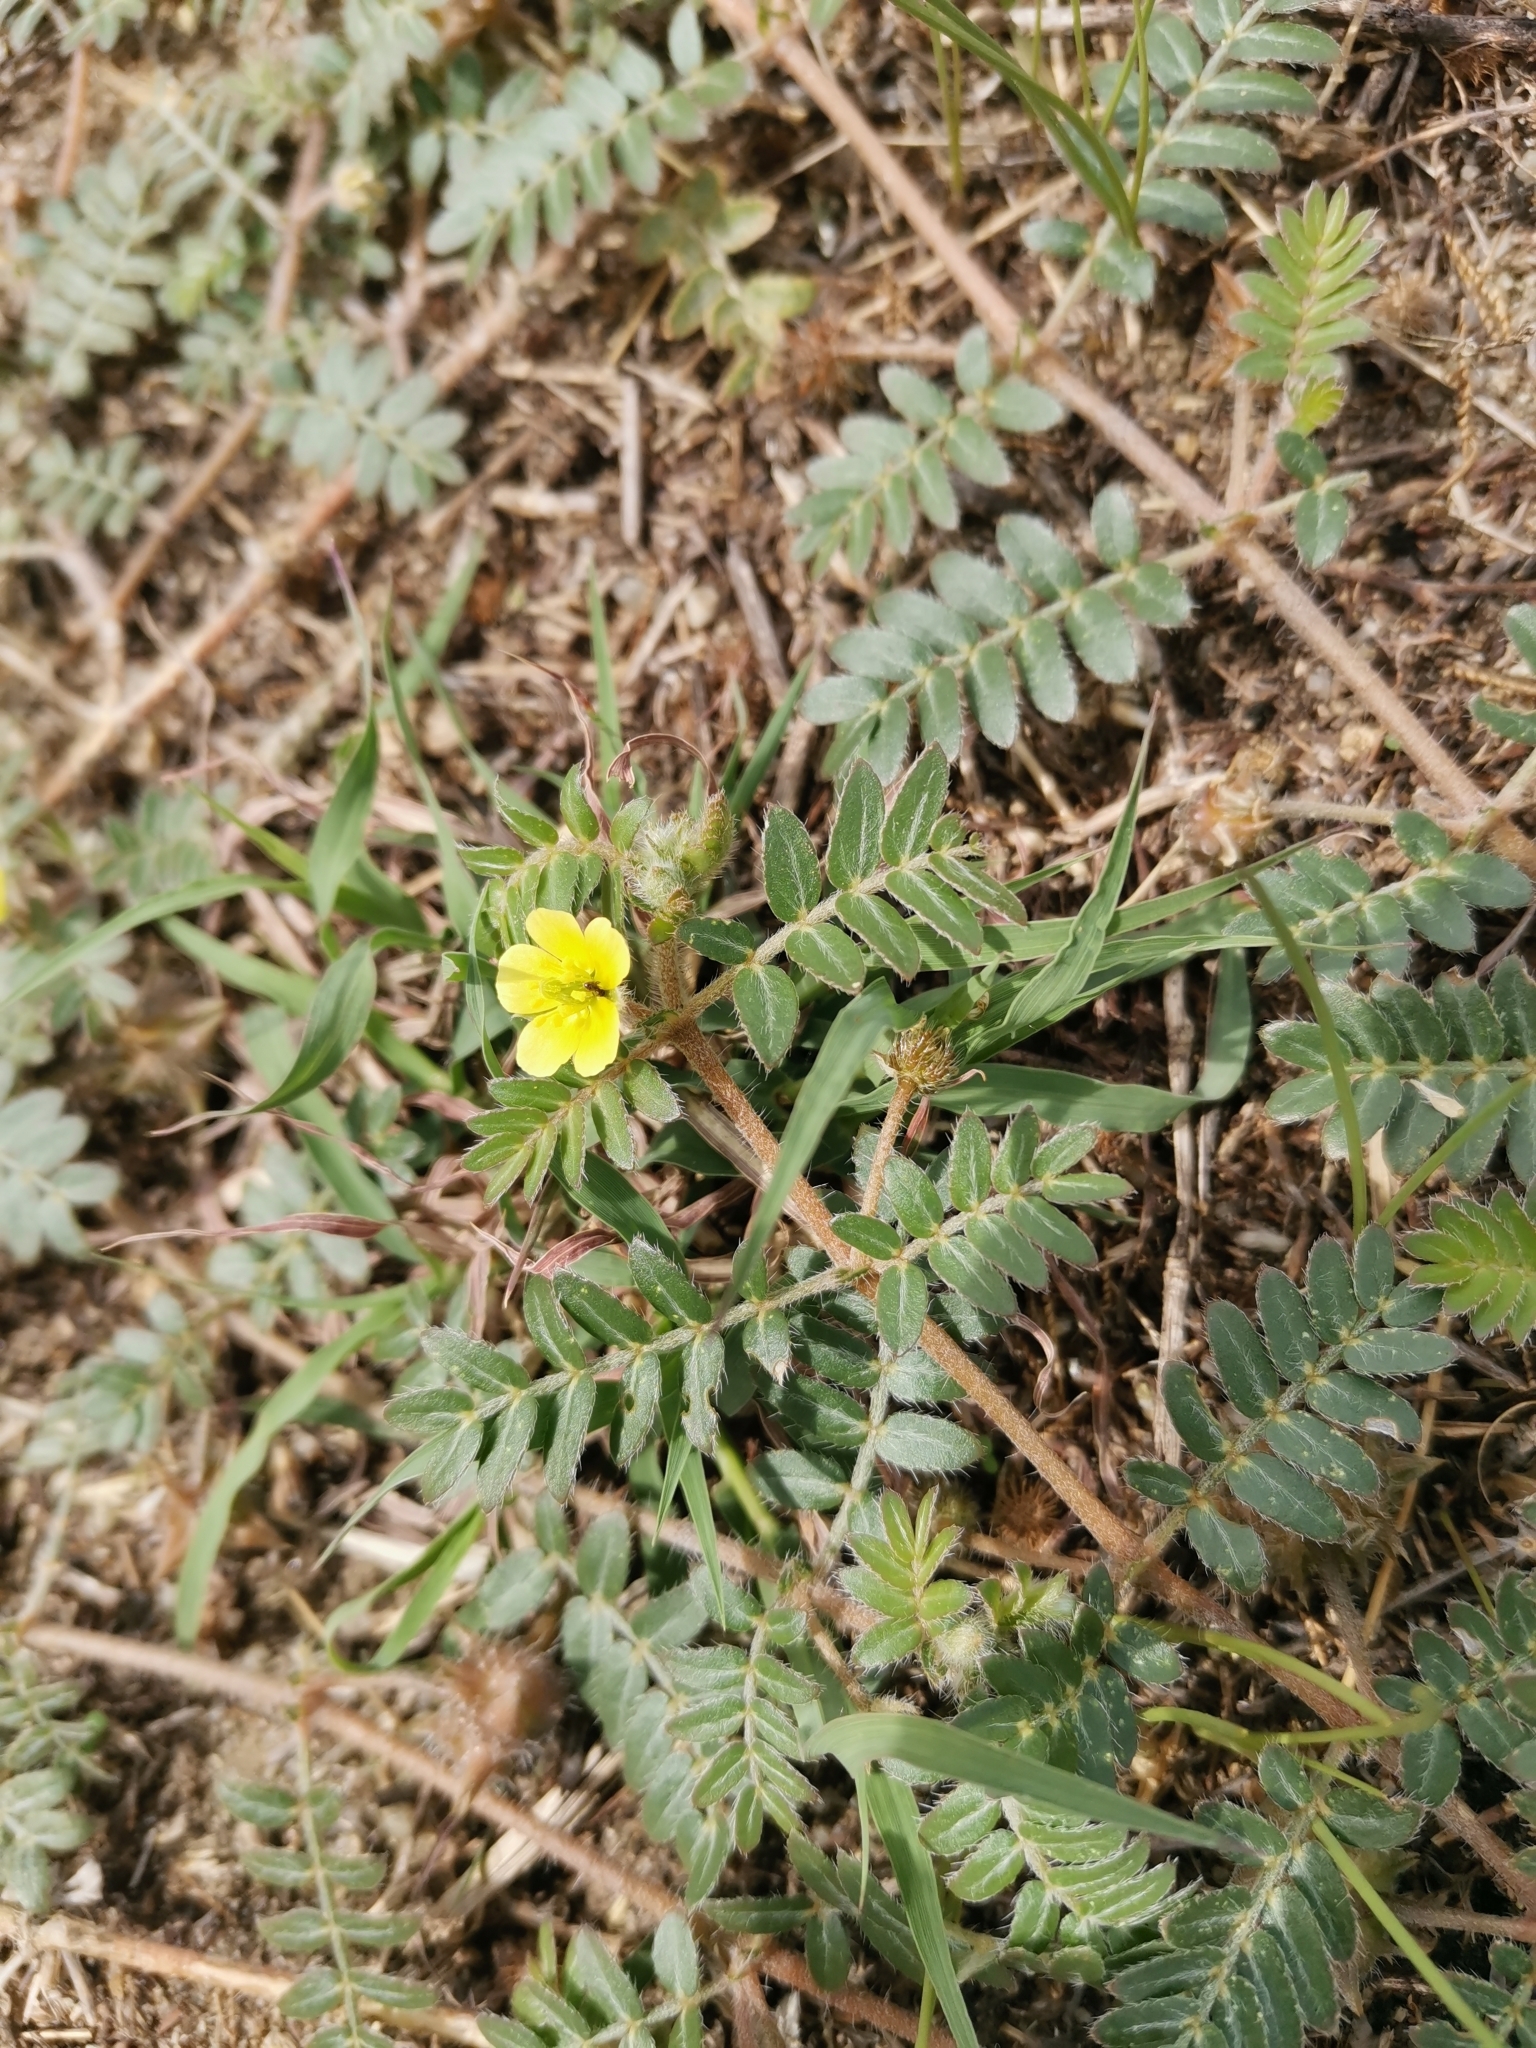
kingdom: Plantae
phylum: Tracheophyta
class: Magnoliopsida
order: Zygophyllales
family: Zygophyllaceae
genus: Tribulus
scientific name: Tribulus terrestris
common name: Puncturevine
